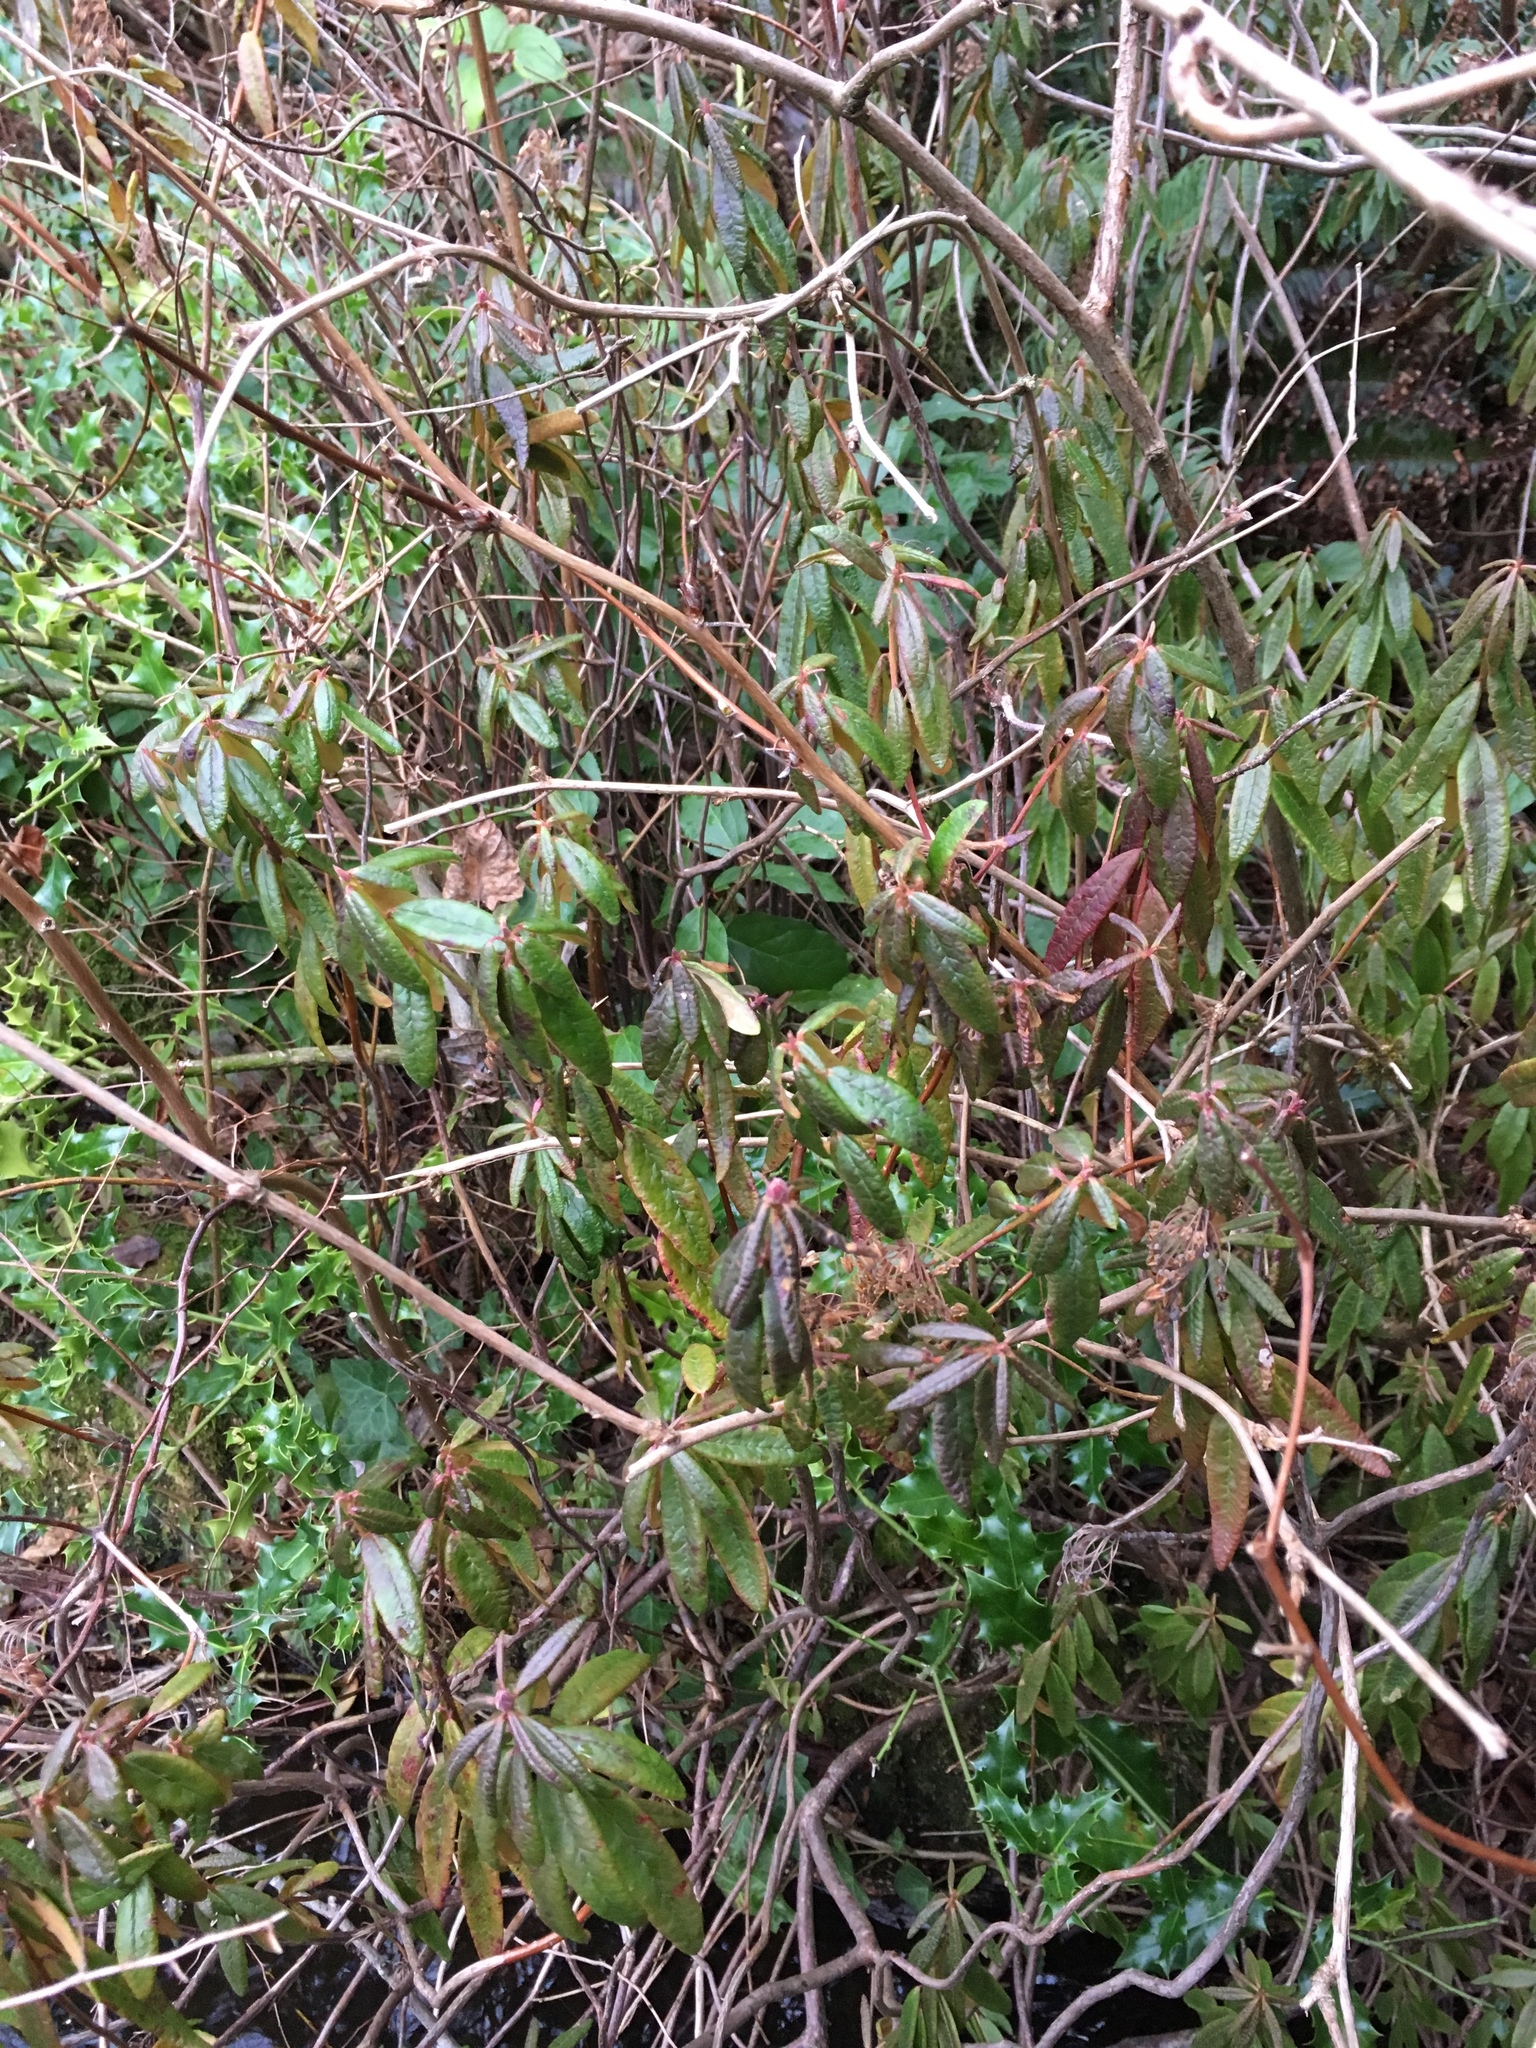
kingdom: Plantae
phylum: Tracheophyta
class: Magnoliopsida
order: Ericales
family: Ericaceae
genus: Rhododendron
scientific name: Rhododendron groenlandicum
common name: Bog labrador tea
